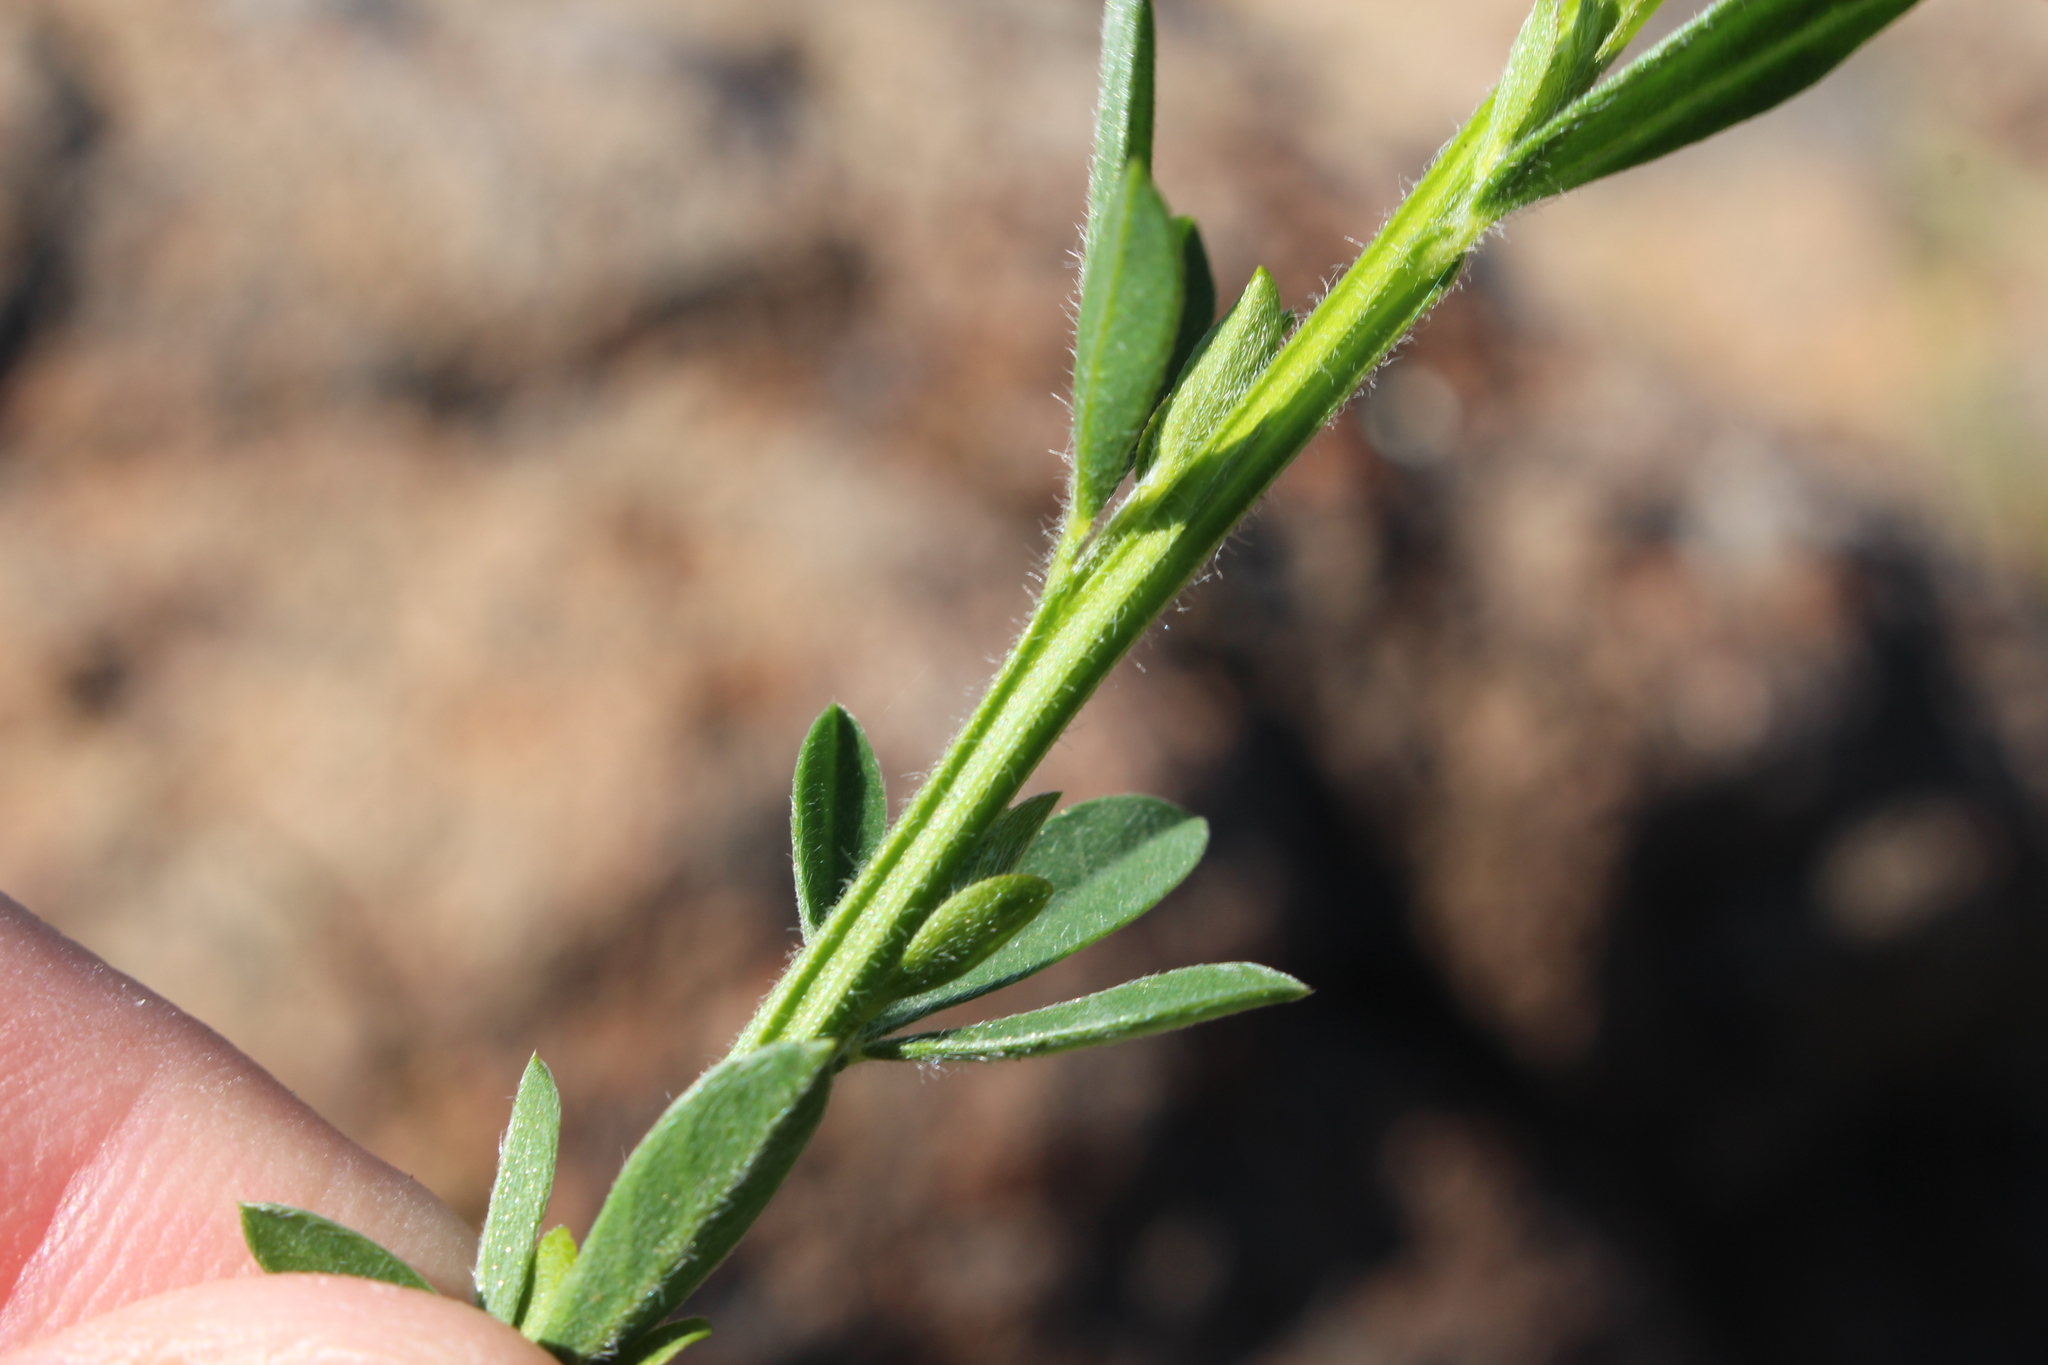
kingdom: Plantae
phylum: Tracheophyta
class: Magnoliopsida
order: Fabales
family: Fabaceae
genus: Cytisus
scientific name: Cytisus scoparius
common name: Scotch broom
